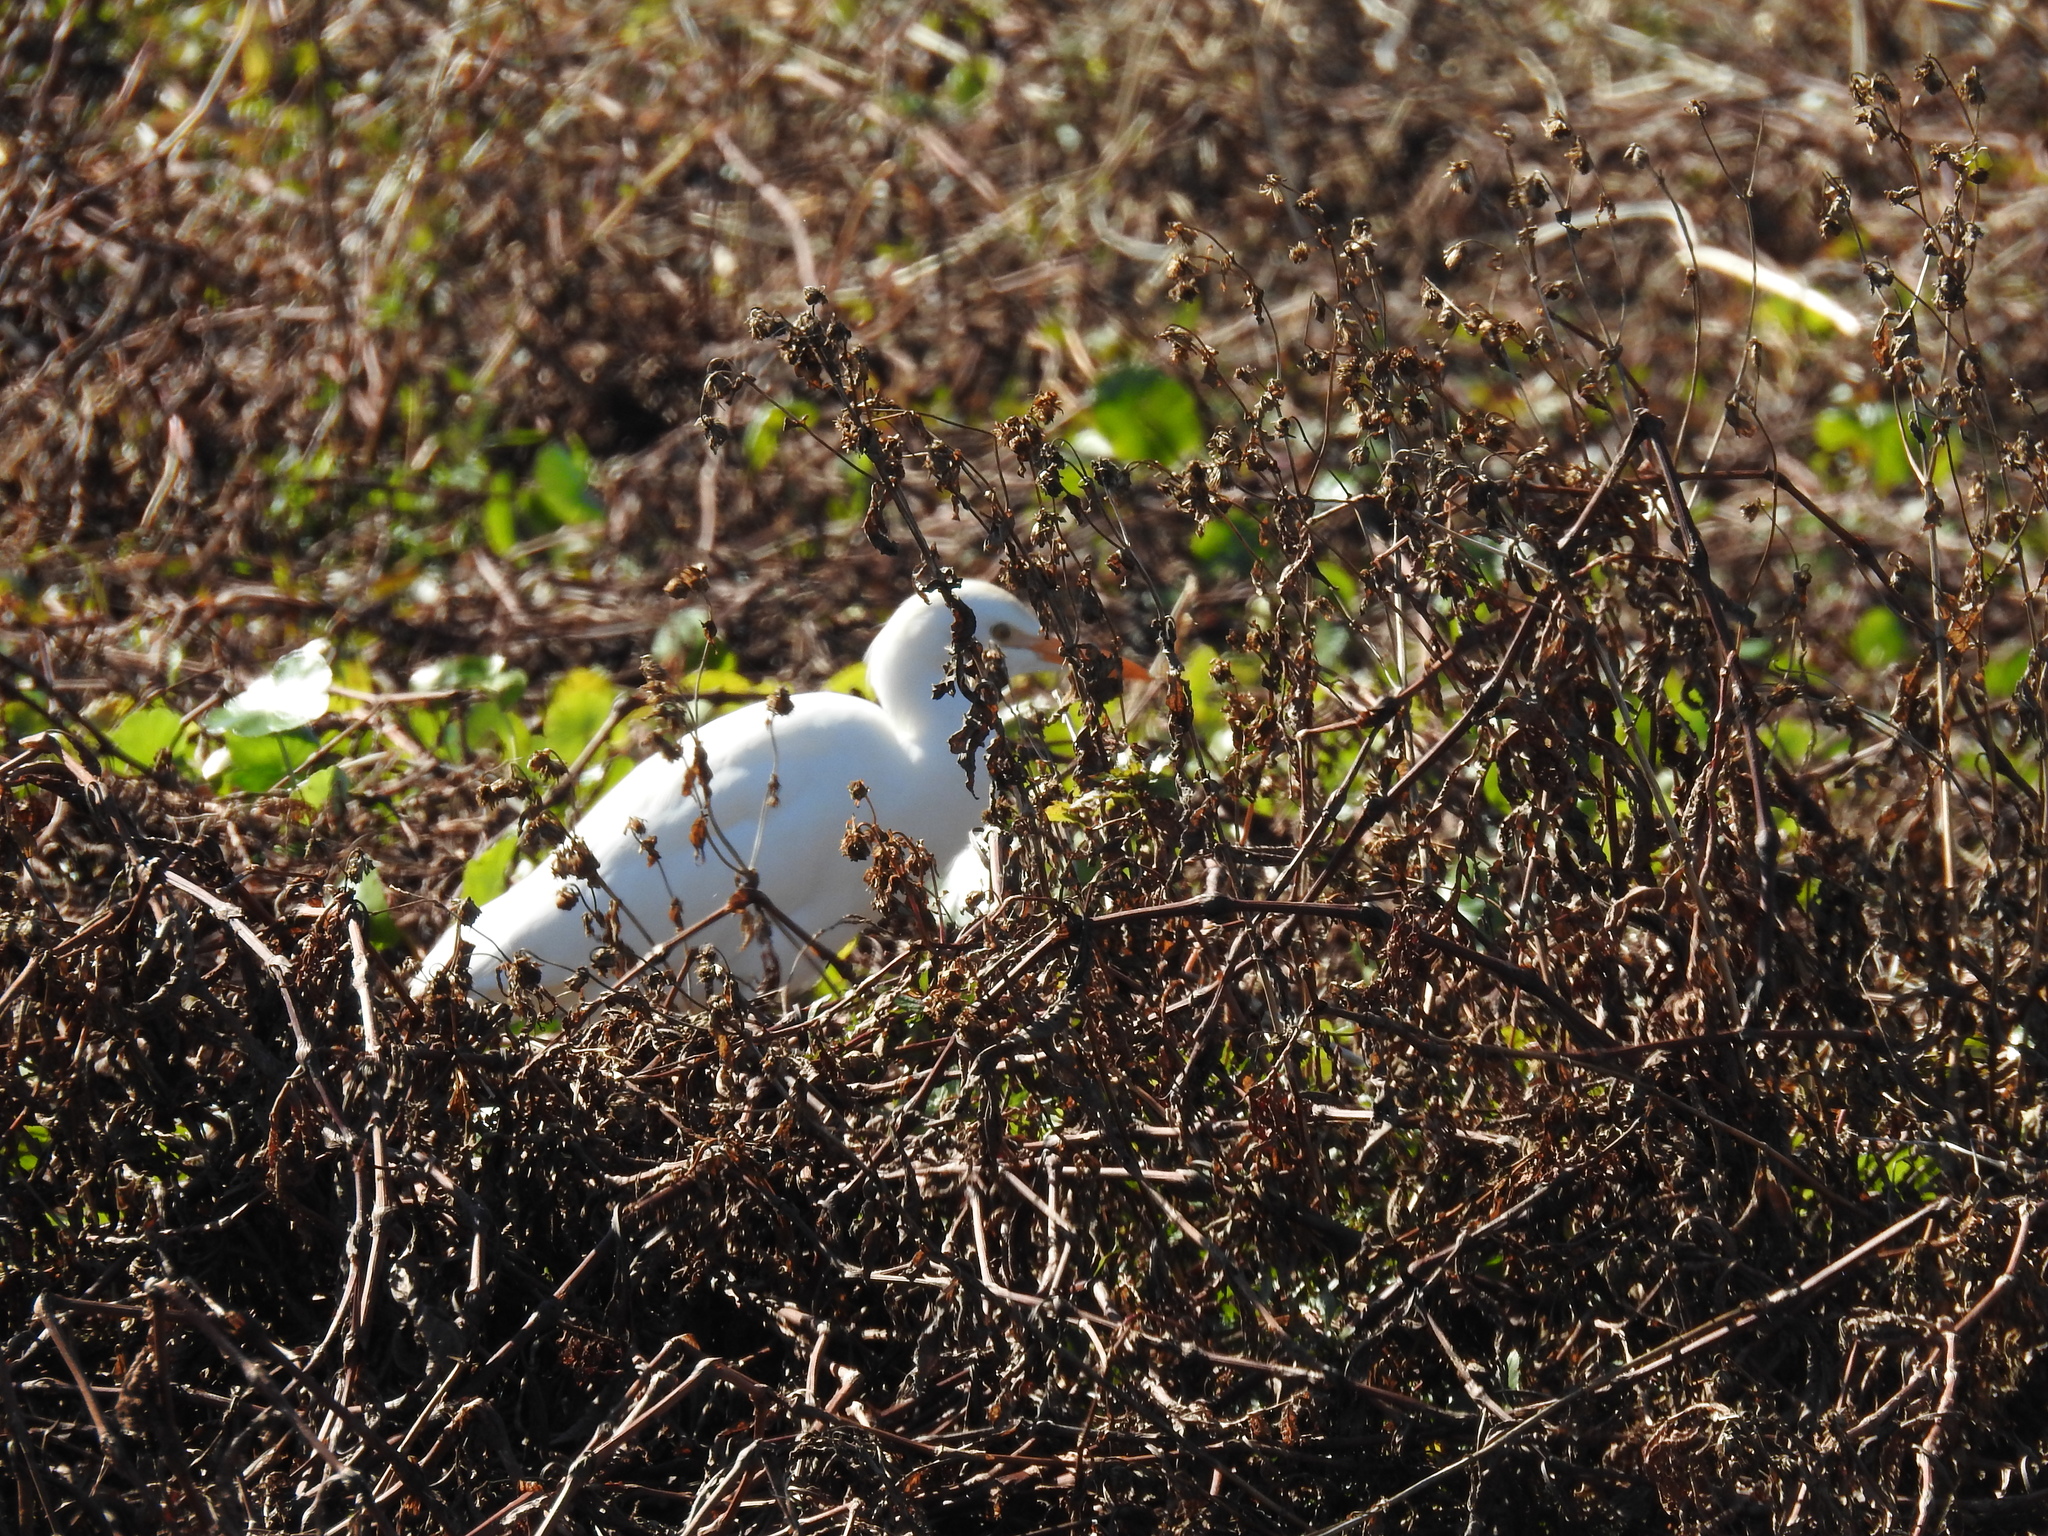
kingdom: Animalia
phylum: Chordata
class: Aves
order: Pelecaniformes
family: Ardeidae
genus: Bubulcus
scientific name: Bubulcus ibis
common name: Cattle egret
